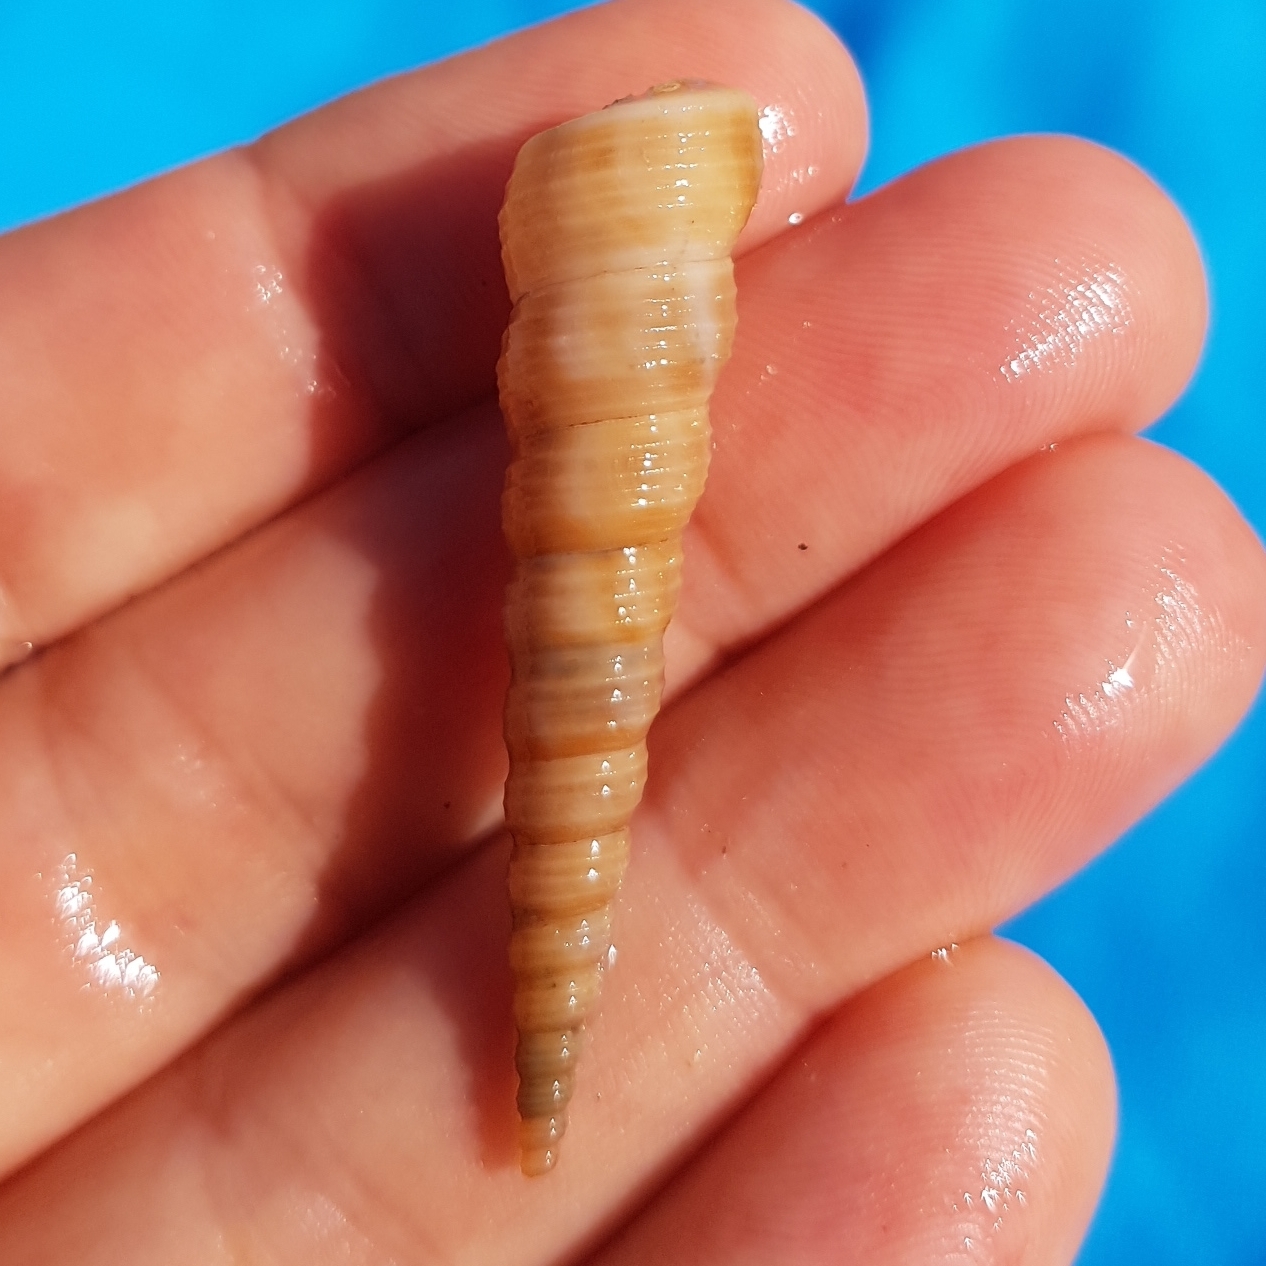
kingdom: Animalia
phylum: Mollusca
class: Gastropoda
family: Turritellidae
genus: Turritellinella
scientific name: Turritellinella tricarinata
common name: Auger shell
